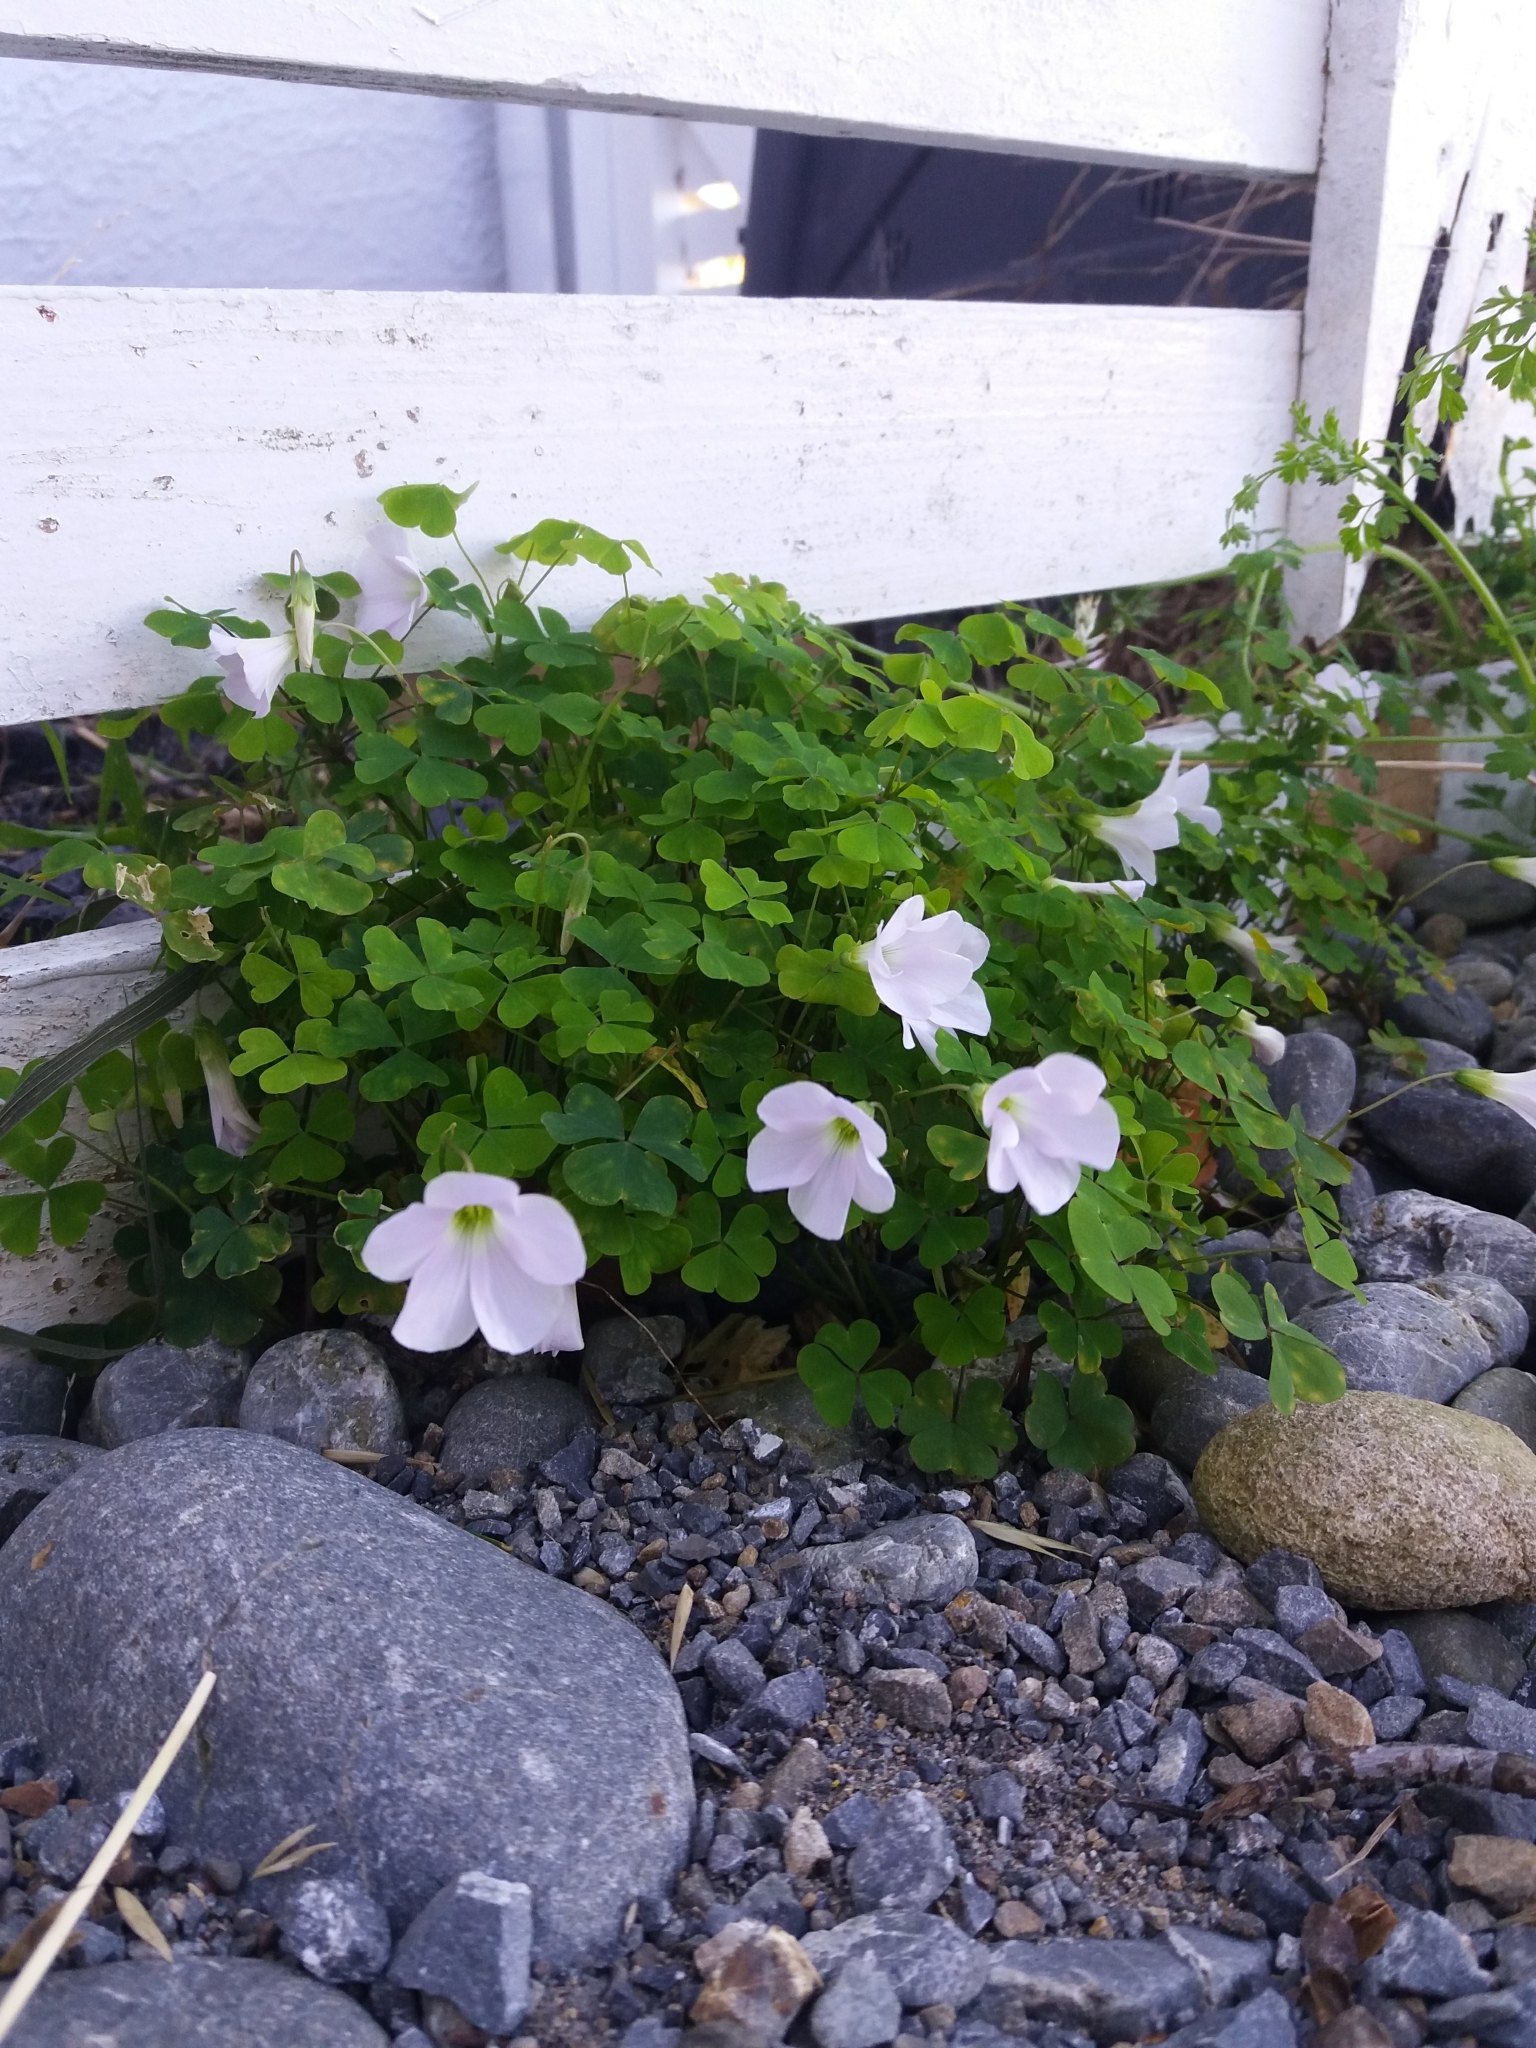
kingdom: Plantae
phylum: Tracheophyta
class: Magnoliopsida
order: Oxalidales
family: Oxalidaceae
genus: Oxalis
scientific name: Oxalis incarnata
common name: Pale pink-sorrel
